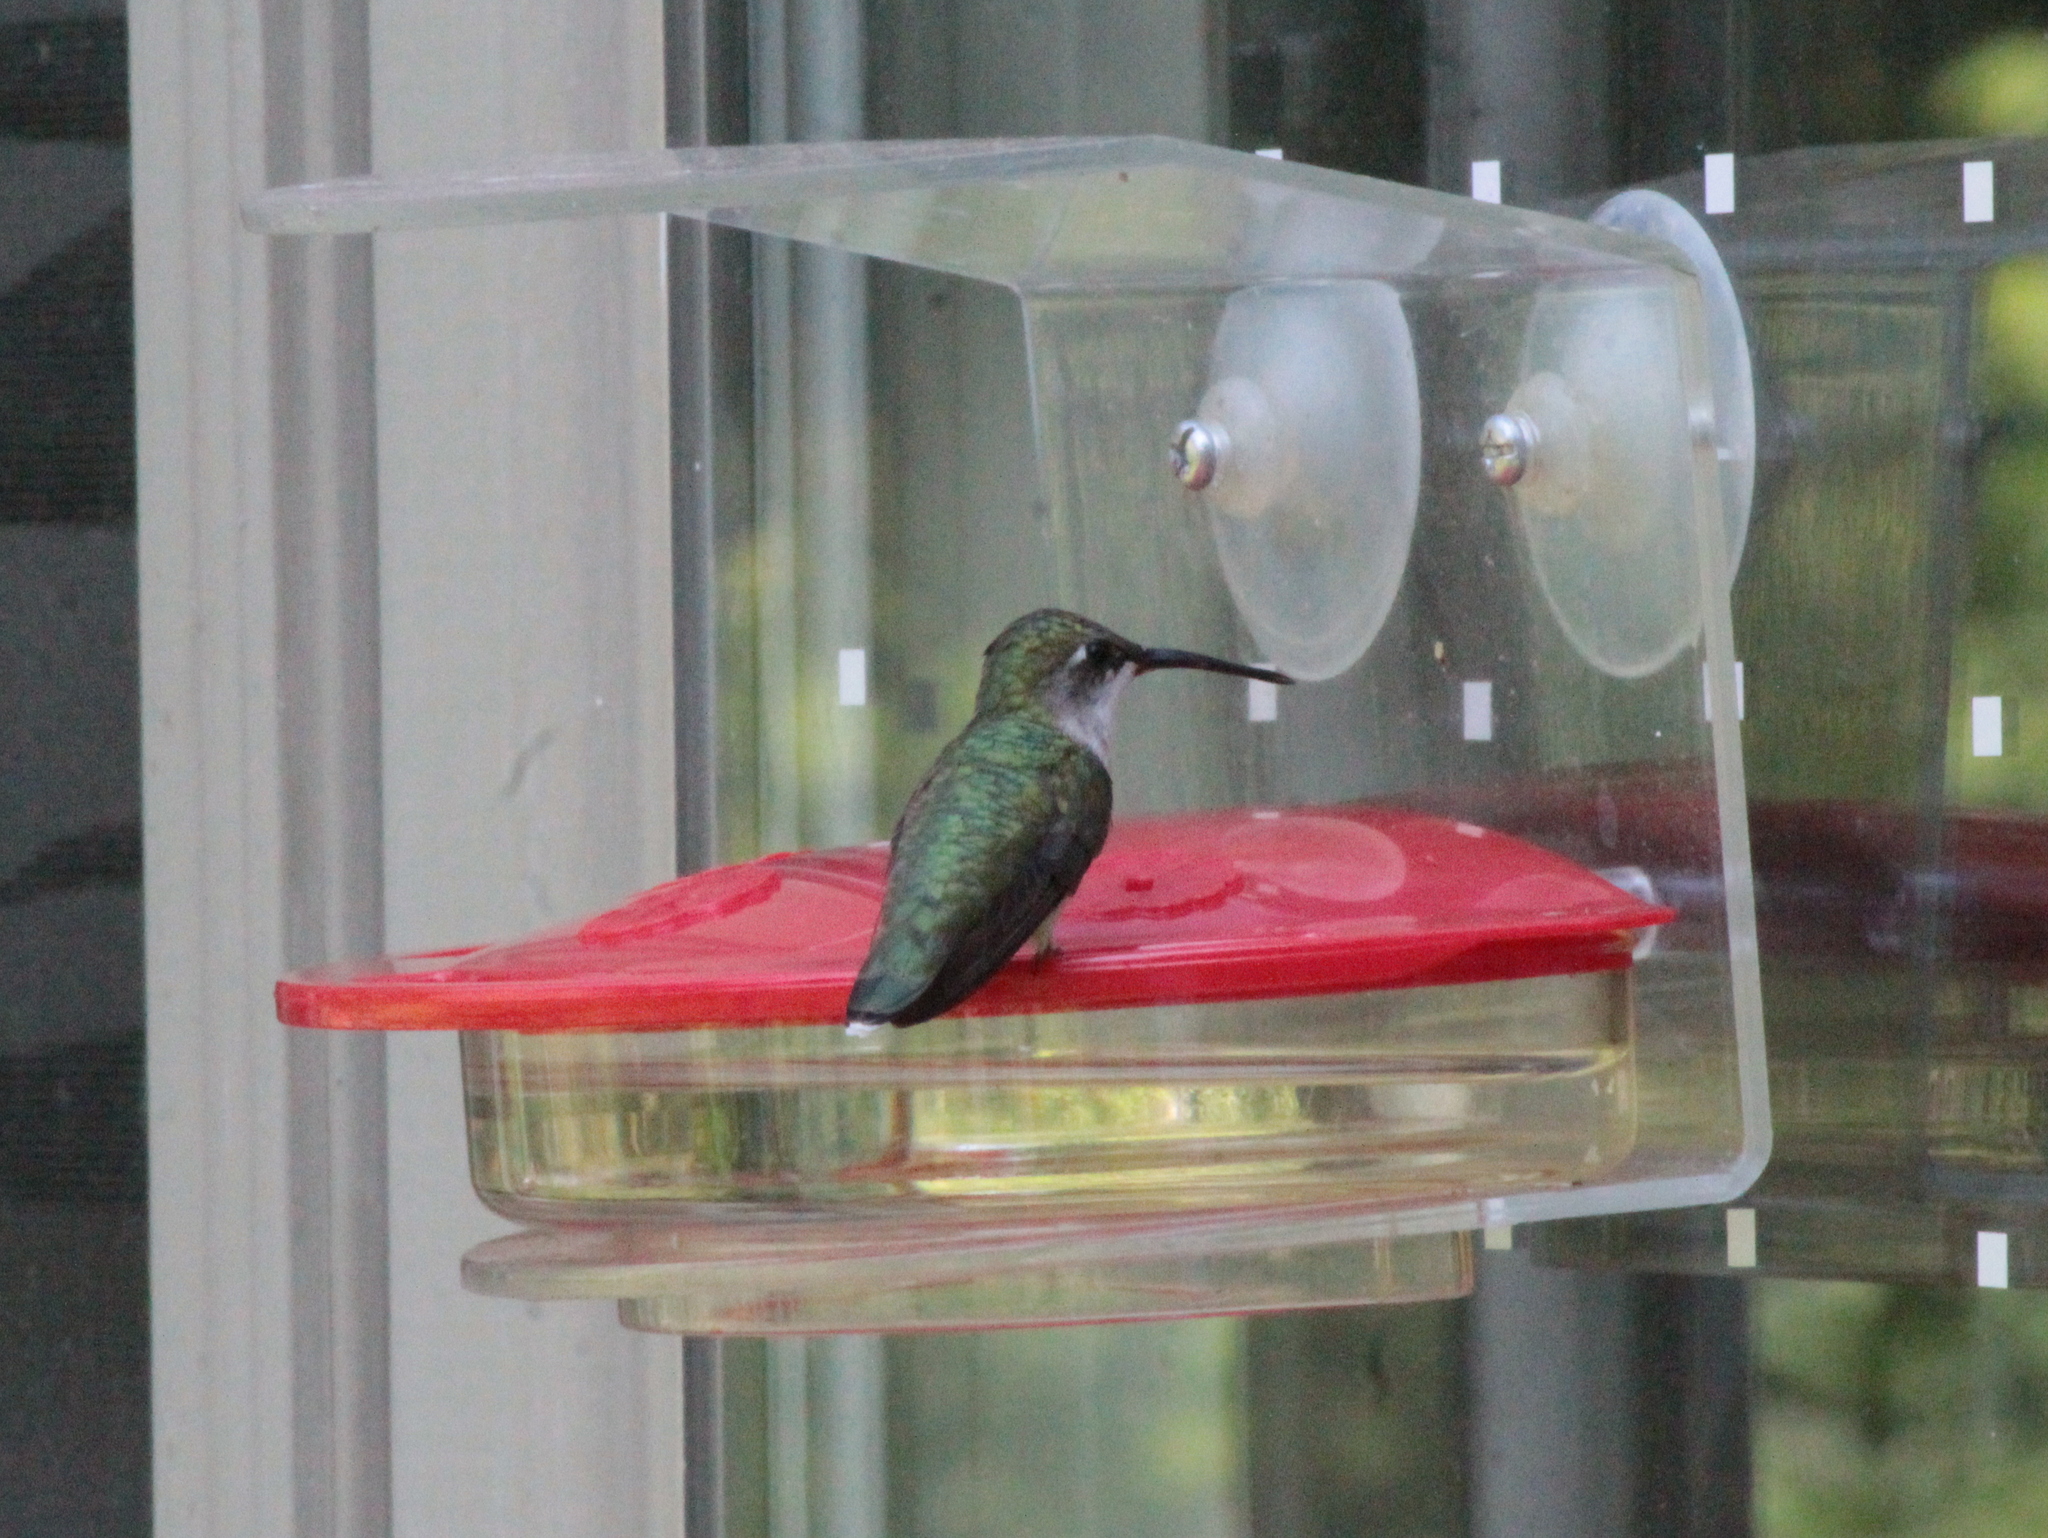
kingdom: Animalia
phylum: Chordata
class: Aves
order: Apodiformes
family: Trochilidae
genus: Archilochus
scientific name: Archilochus colubris
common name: Ruby-throated hummingbird
